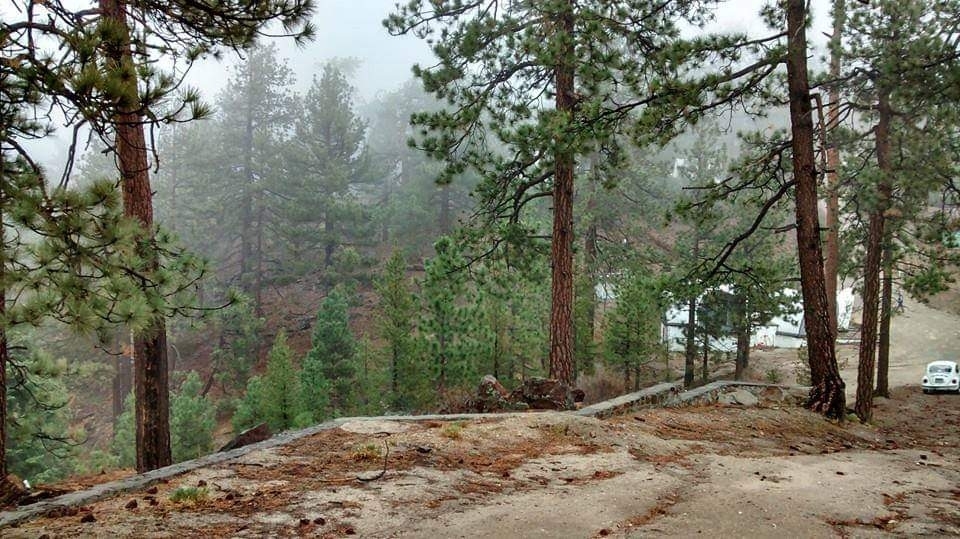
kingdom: Plantae
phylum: Tracheophyta
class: Pinopsida
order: Pinales
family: Pinaceae
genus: Pinus
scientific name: Pinus jeffreyi
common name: Jeffrey pine
